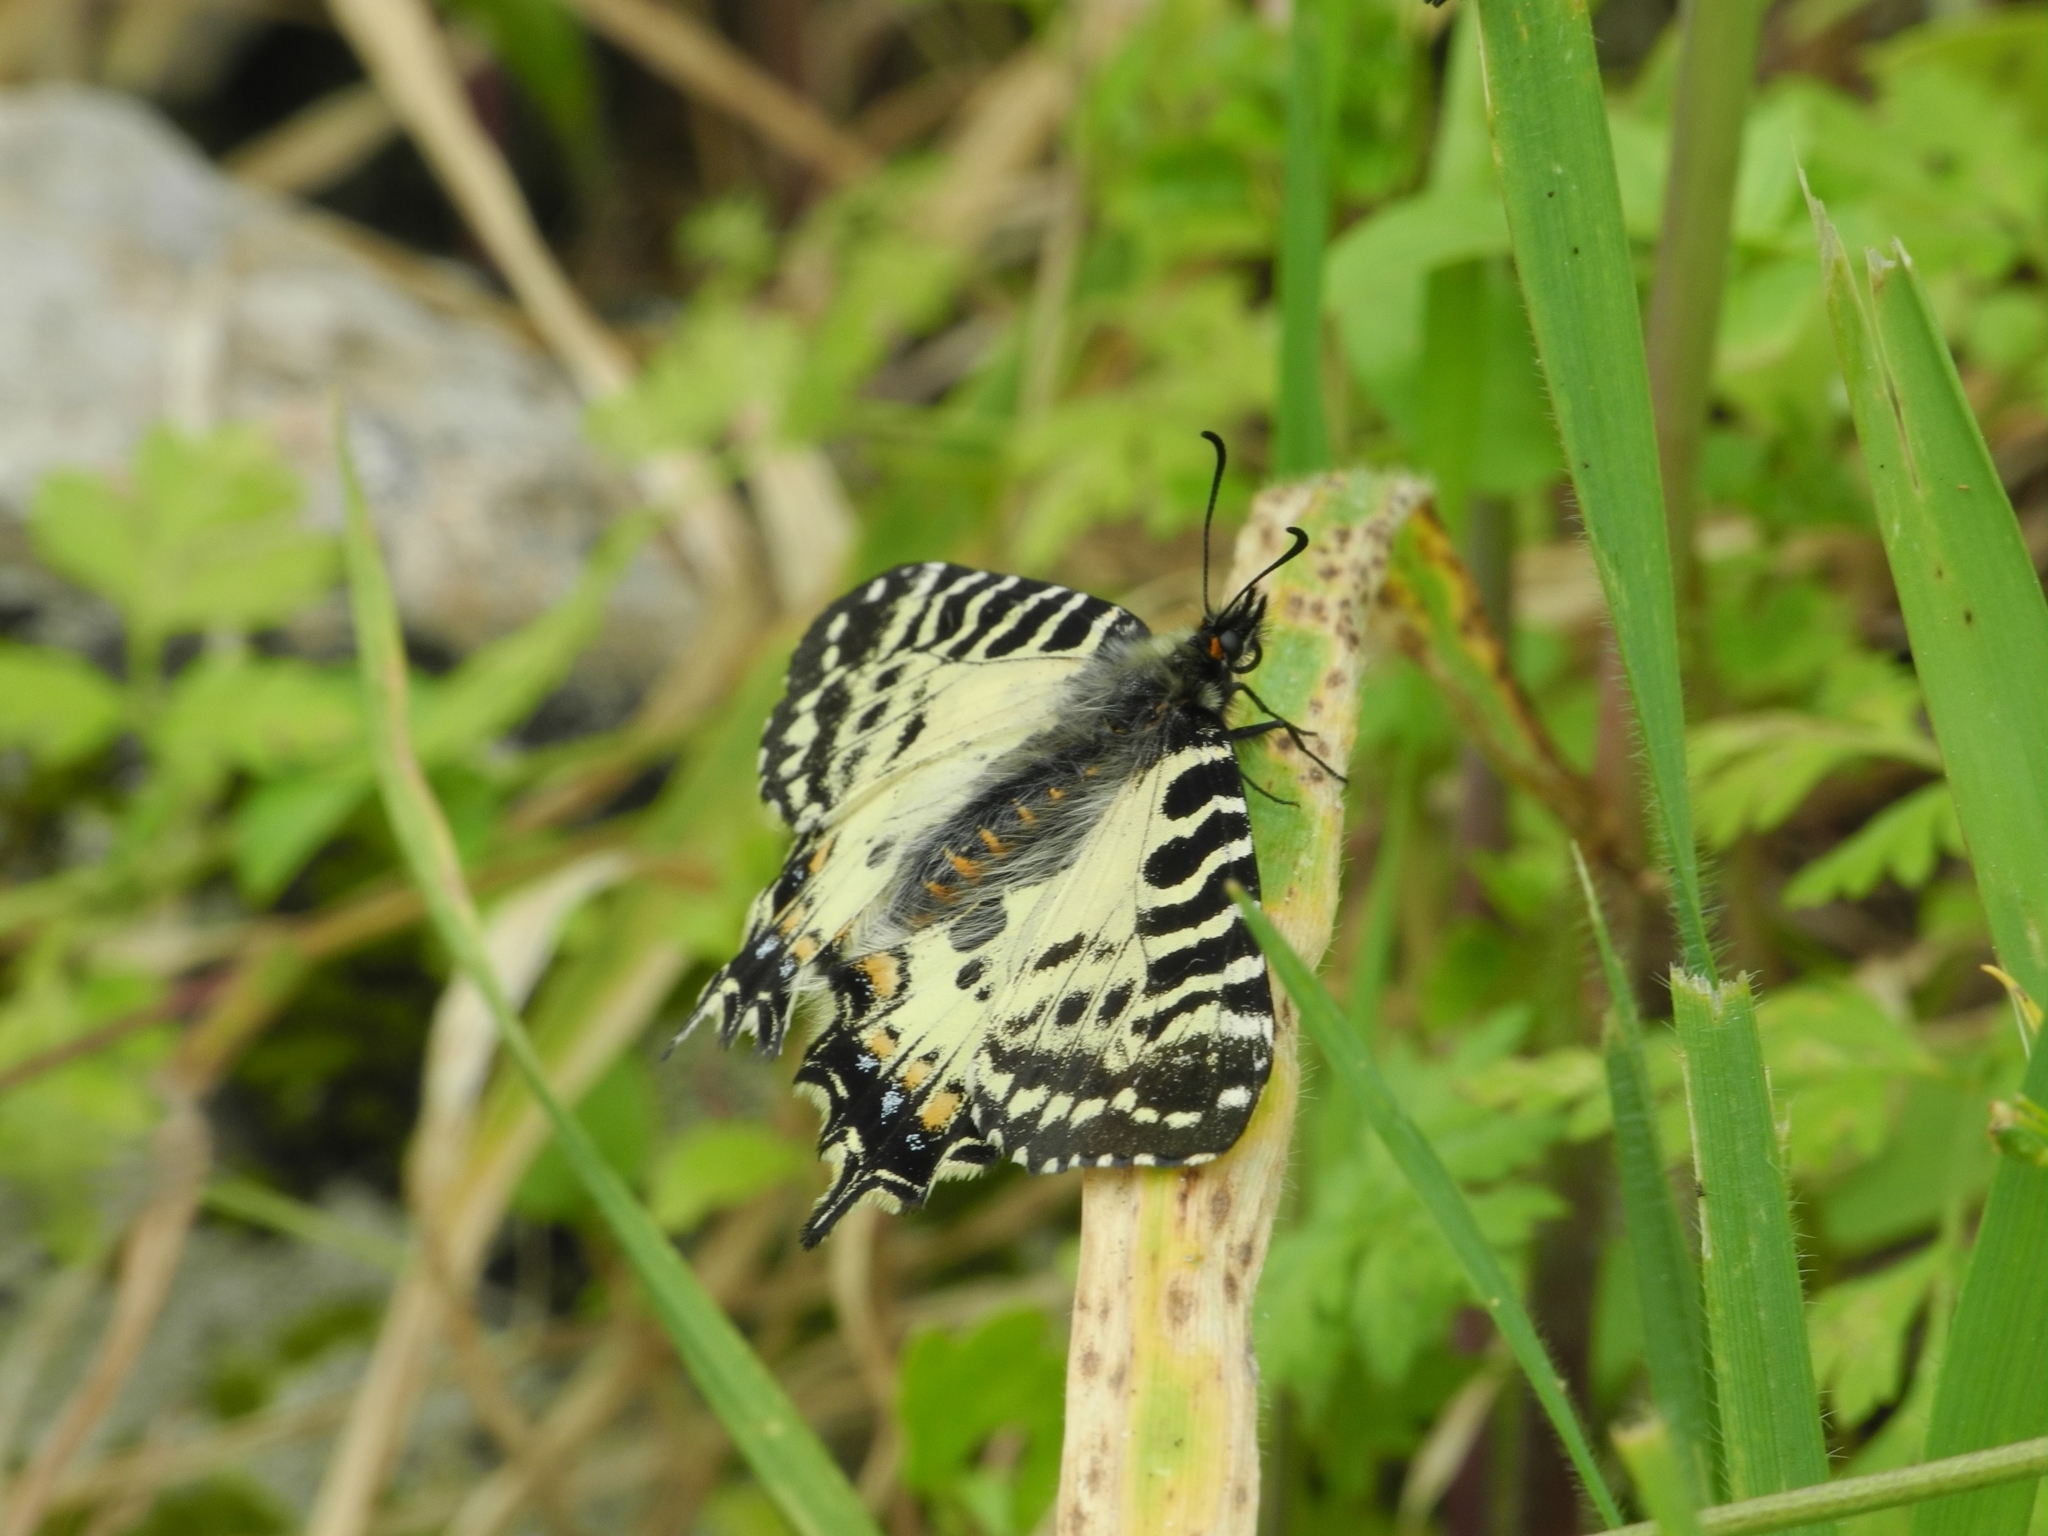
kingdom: Animalia
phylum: Arthropoda
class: Insecta
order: Lepidoptera
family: Papilionidae
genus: Zerynthia
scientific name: Zerynthia cerisy
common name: Eastern festoon
